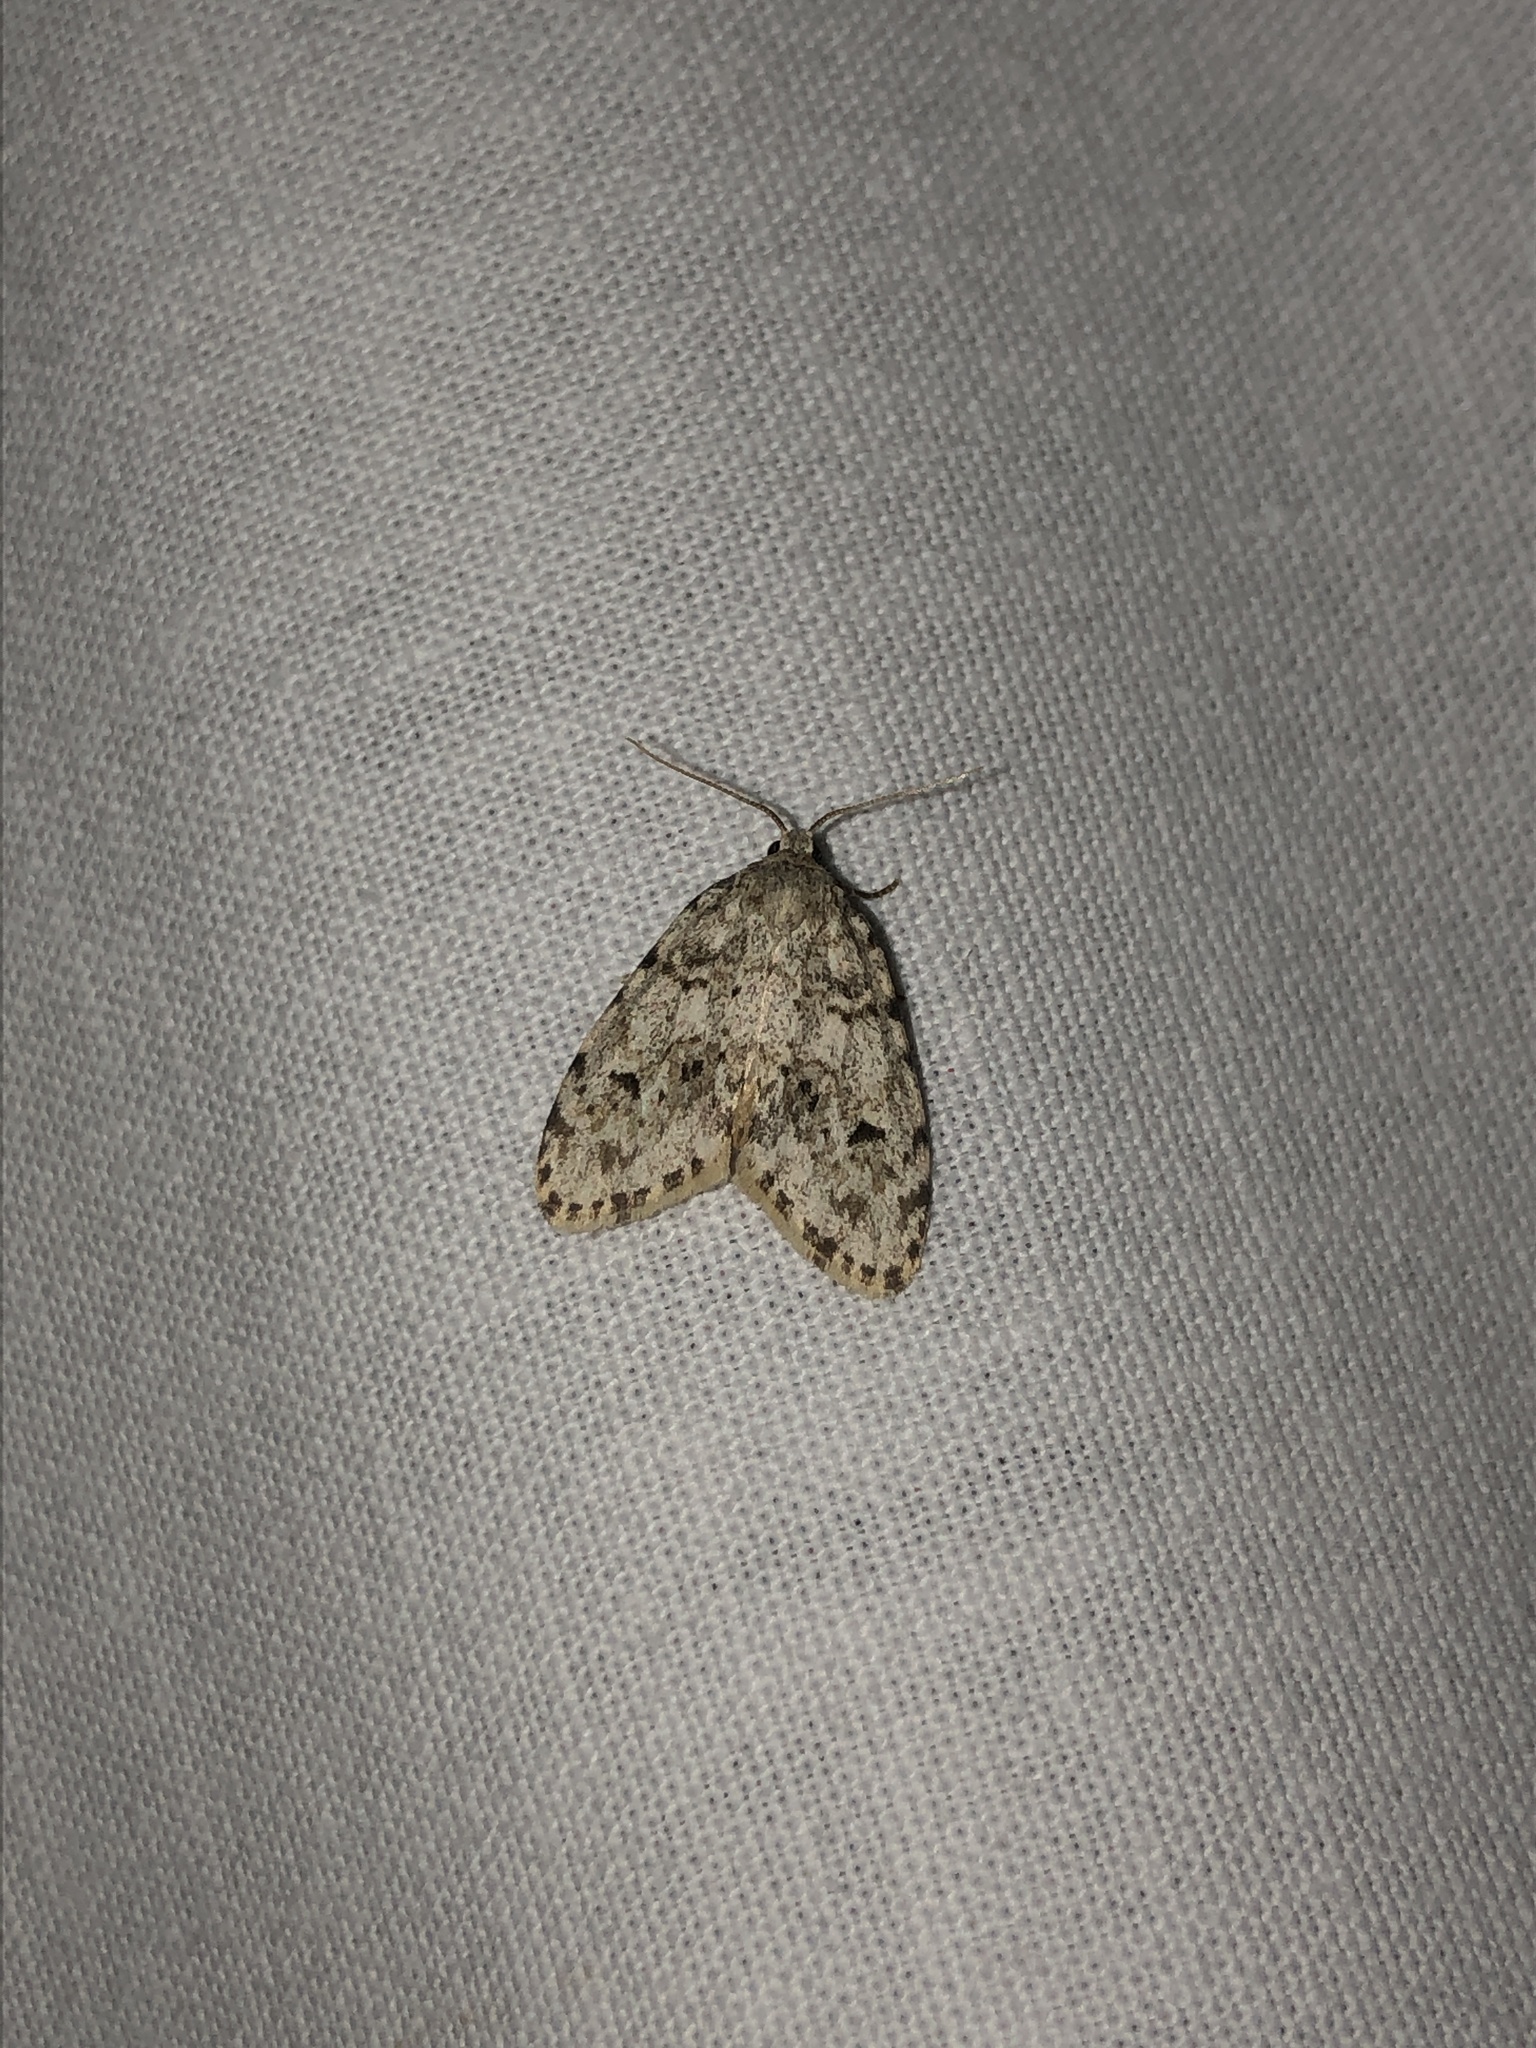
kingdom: Animalia
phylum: Arthropoda
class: Insecta
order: Lepidoptera
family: Erebidae
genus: Clemensia
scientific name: Clemensia umbrata
